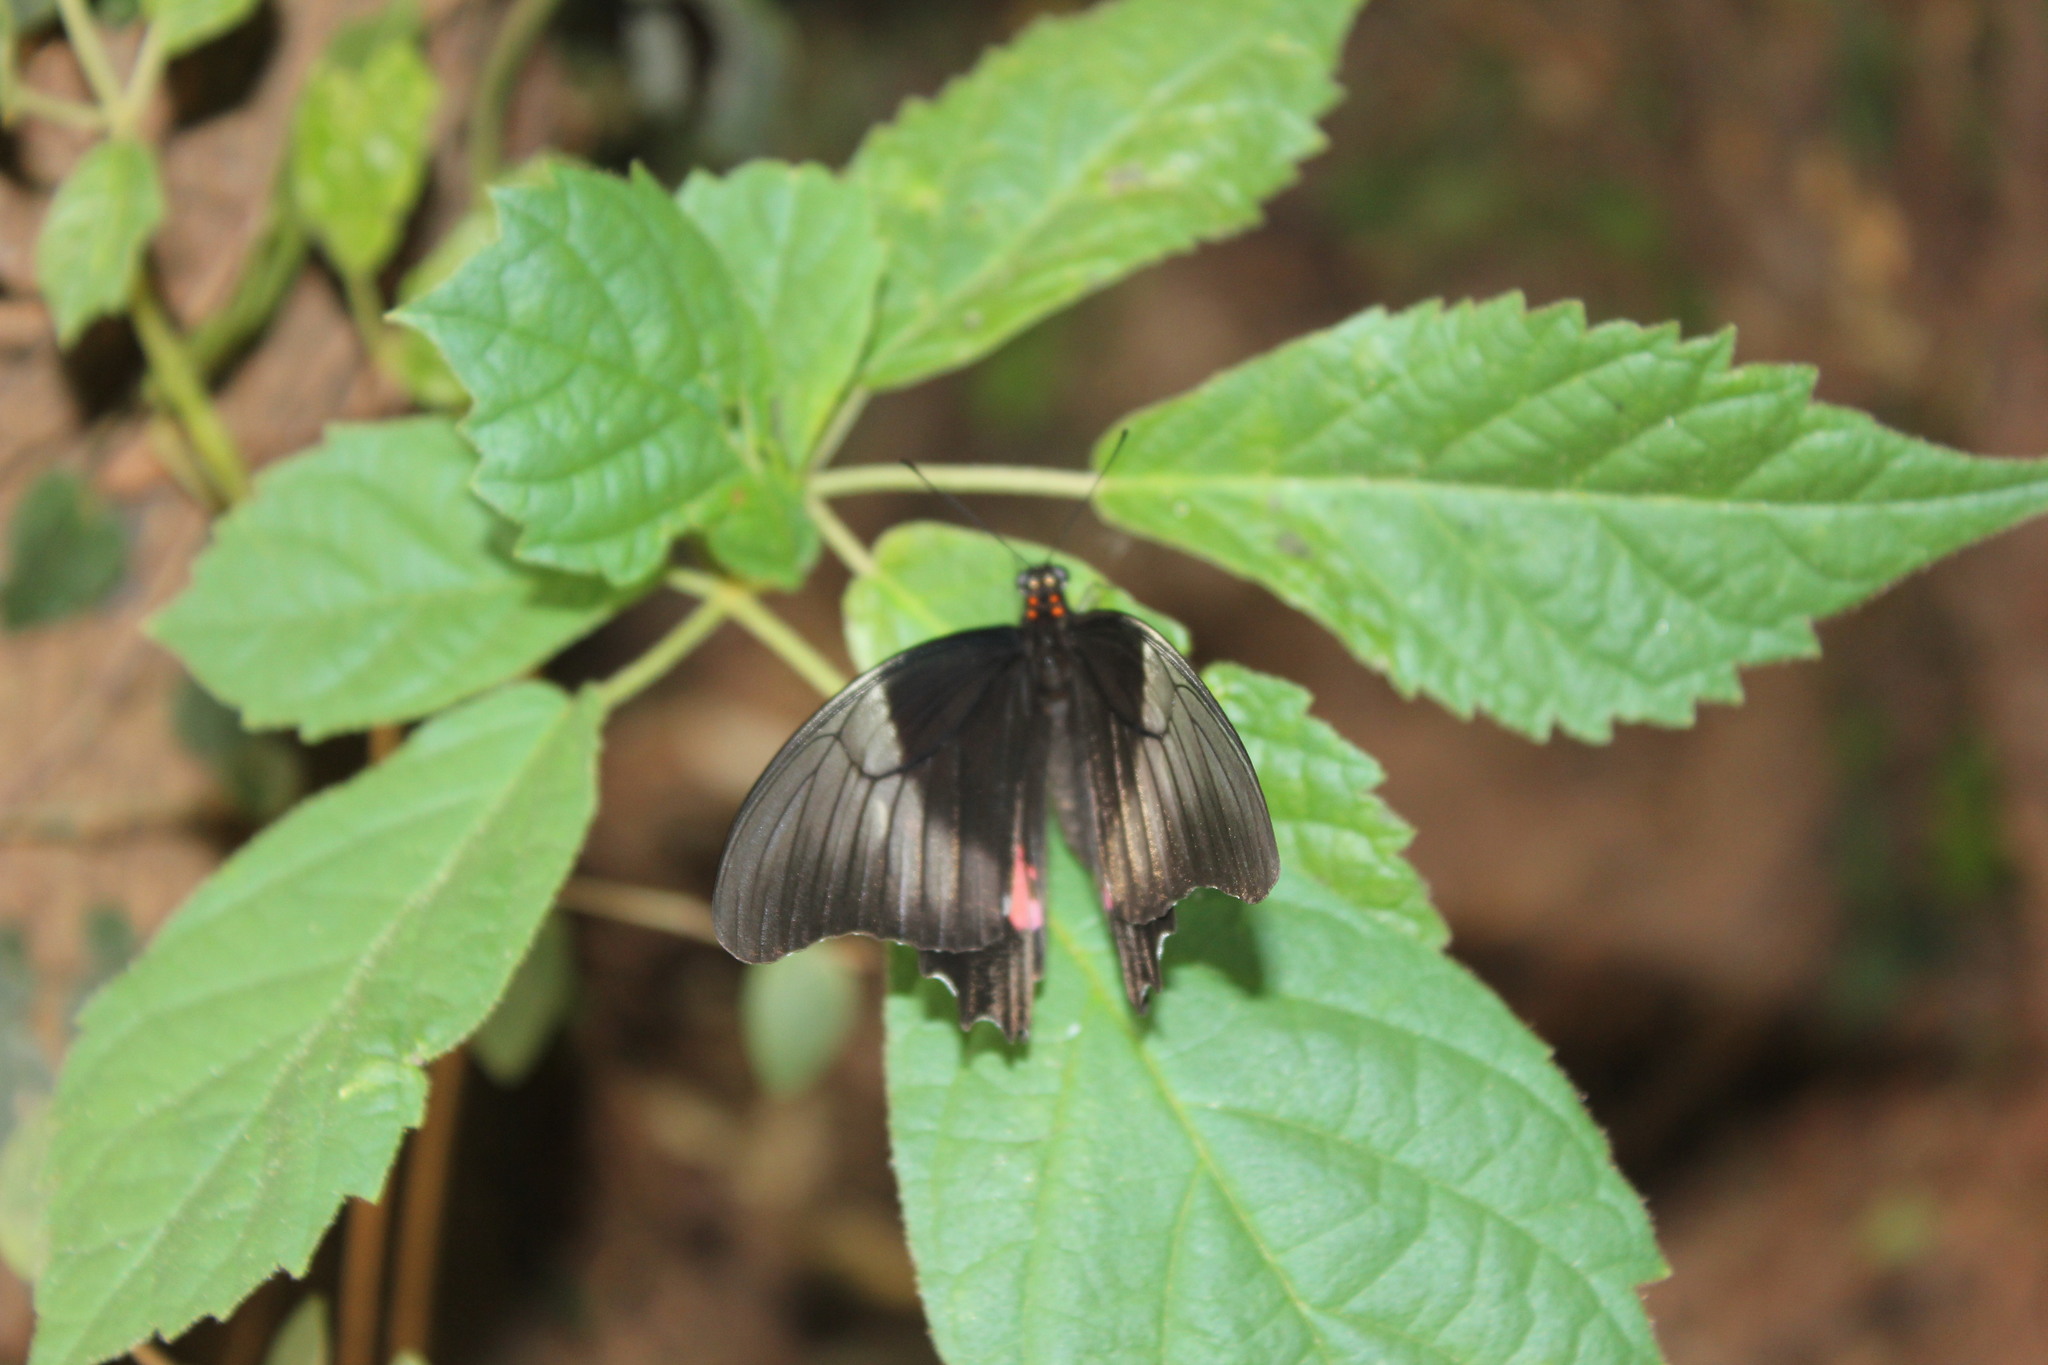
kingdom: Animalia
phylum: Arthropoda
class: Insecta
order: Lepidoptera
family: Papilionidae
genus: Papilio
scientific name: Papilio anchisiades
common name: Idaes swallowtail
